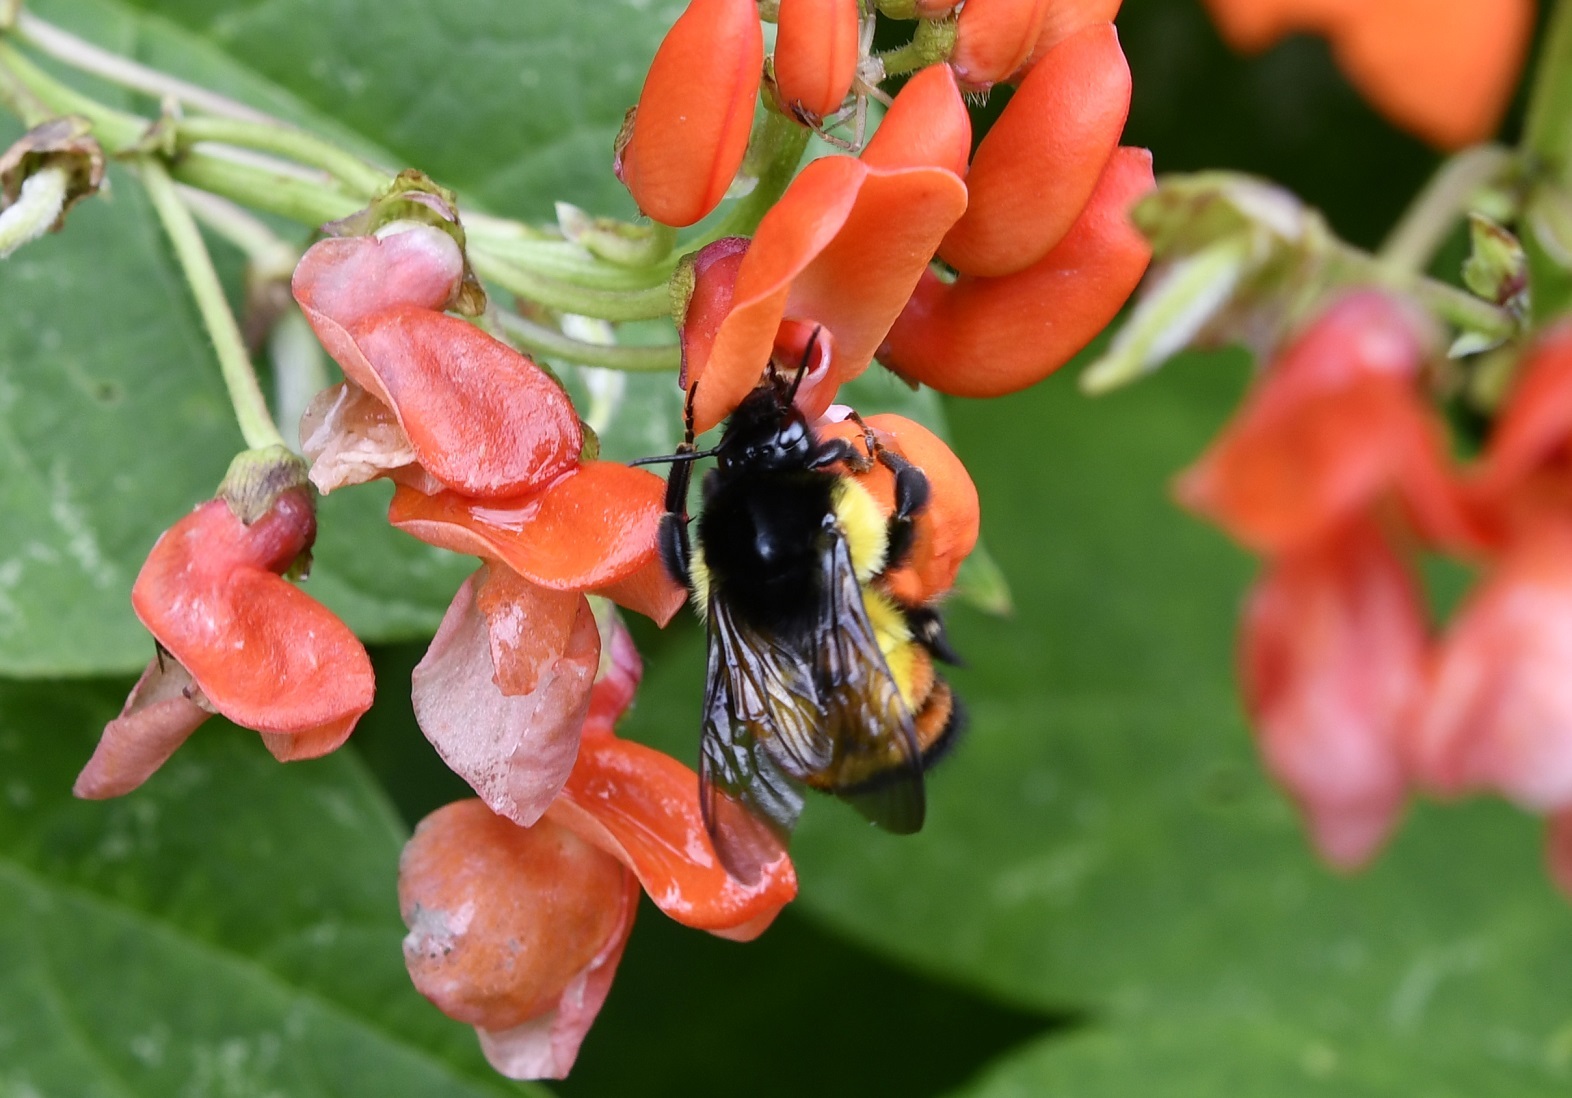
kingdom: Animalia
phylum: Arthropoda
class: Insecta
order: Hymenoptera
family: Apidae
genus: Bombus
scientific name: Bombus ephippiatus
